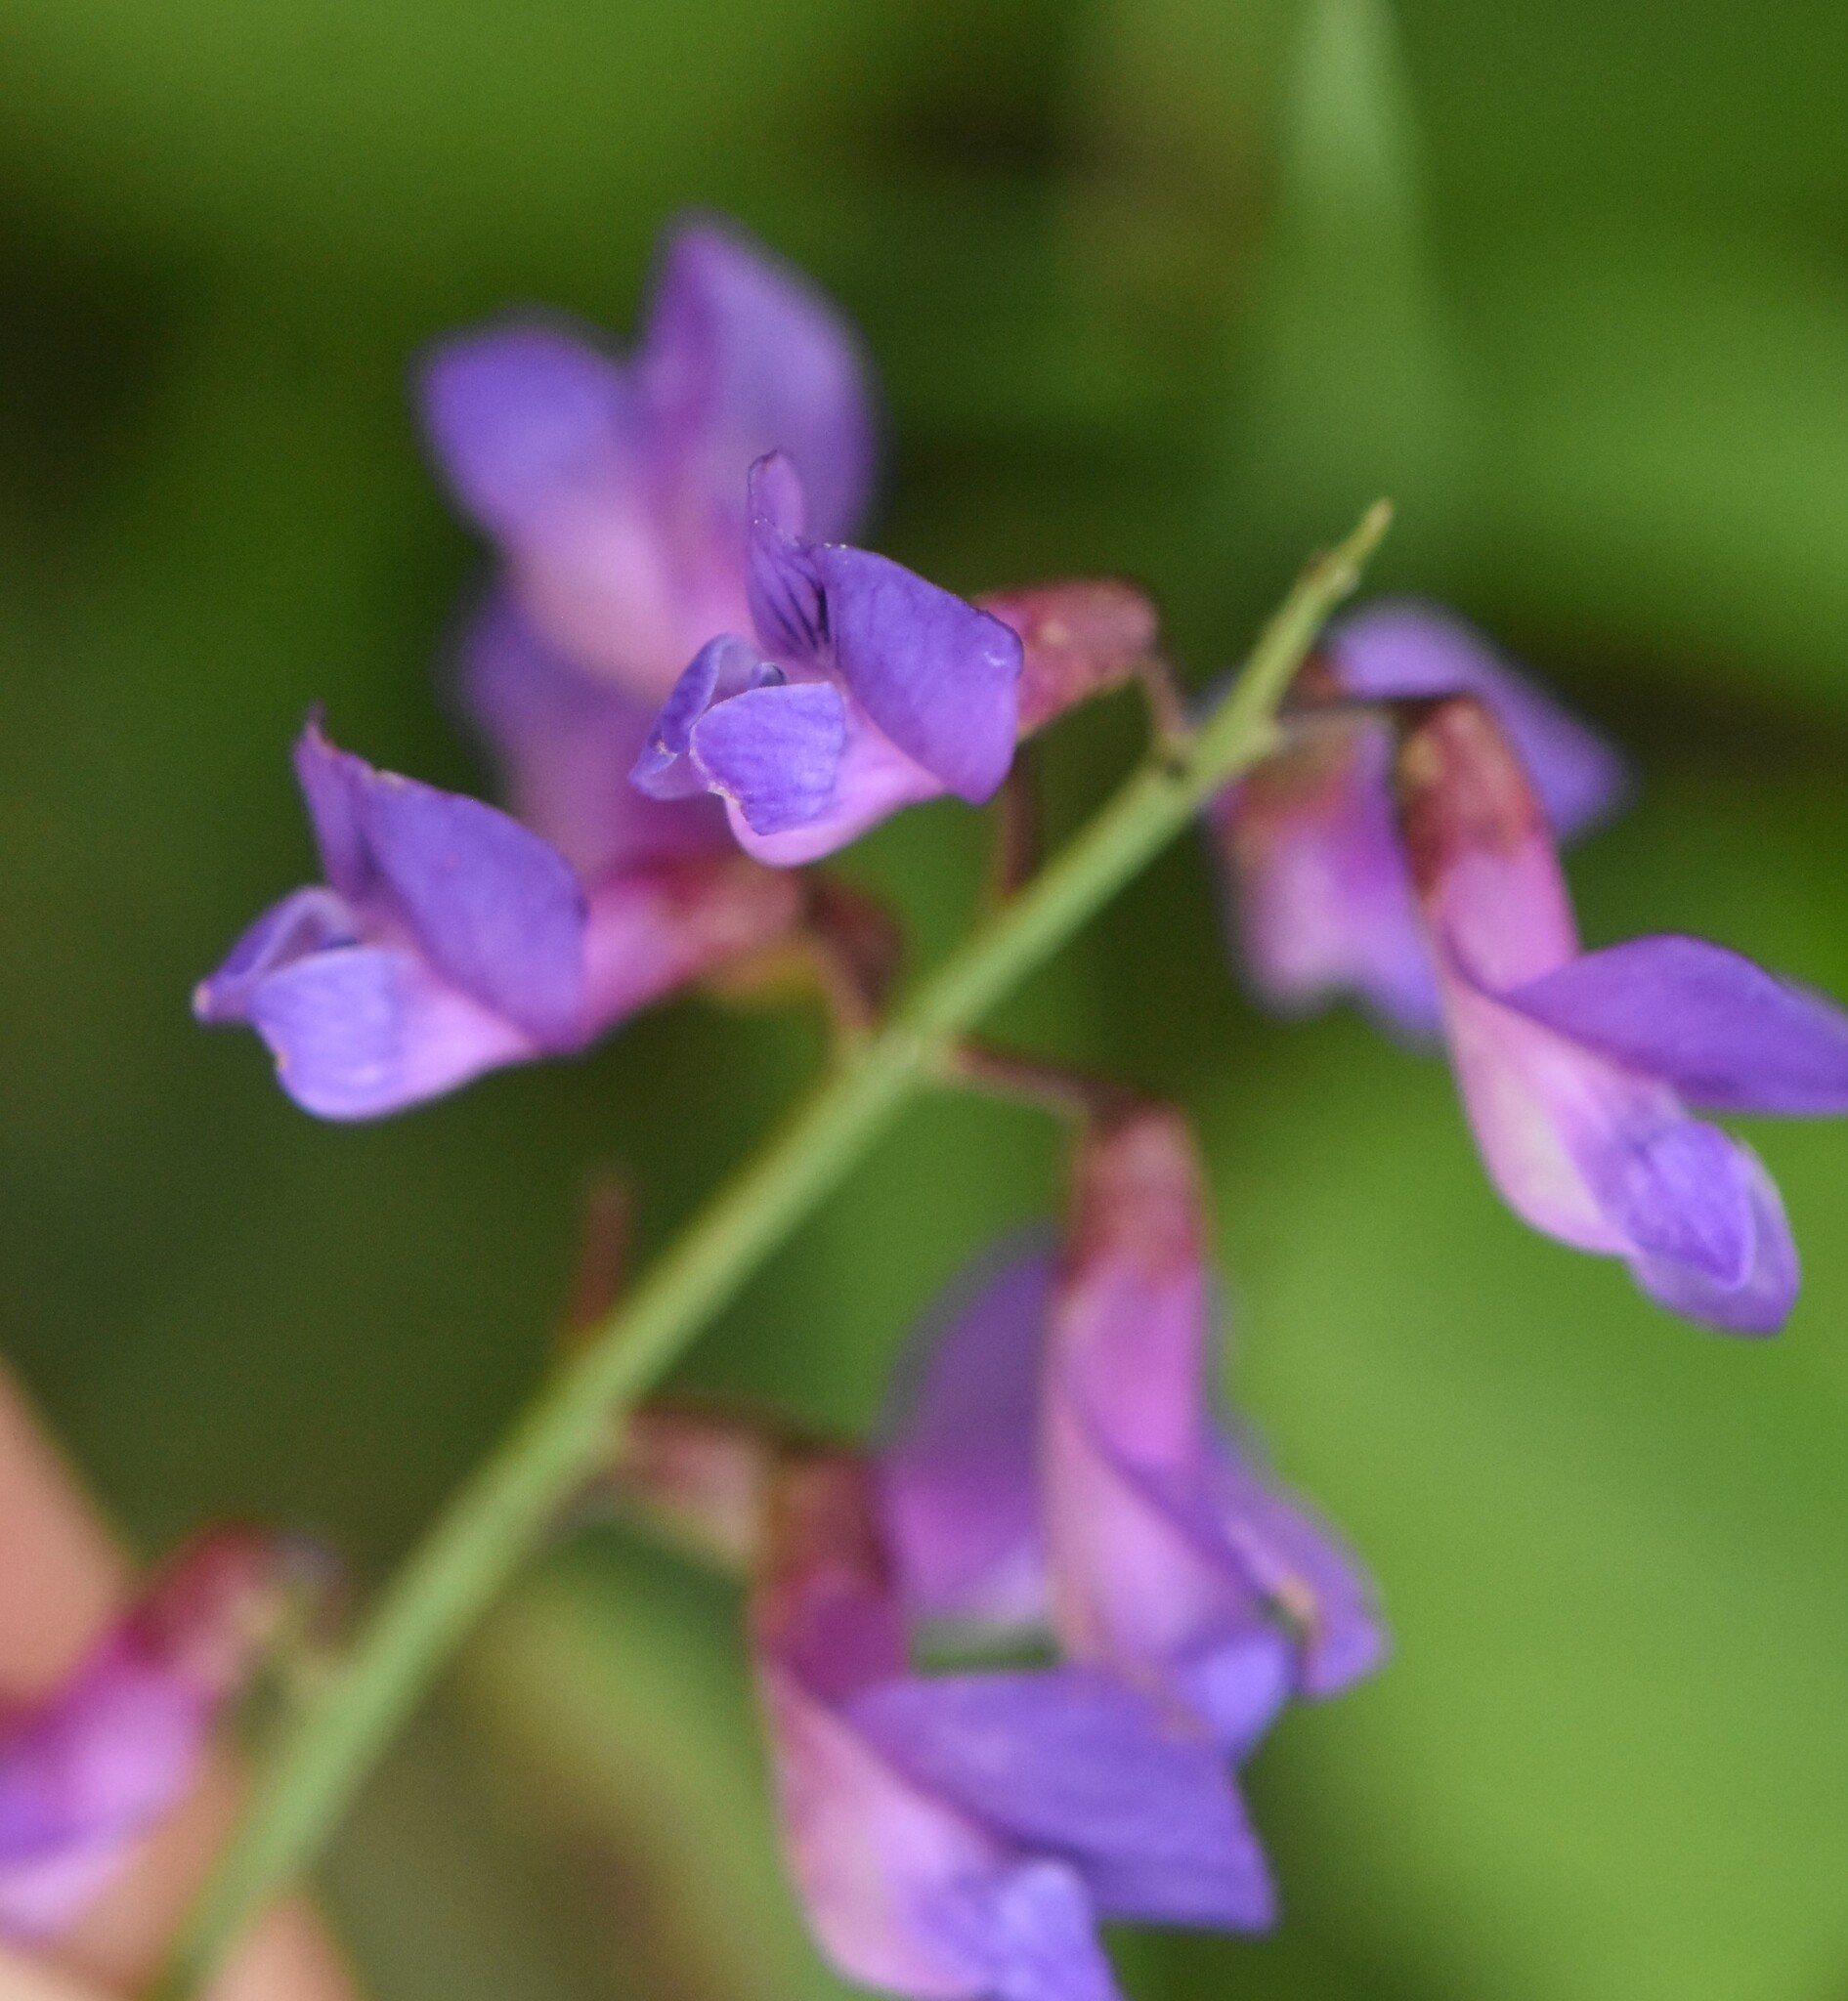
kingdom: Plantae
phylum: Tracheophyta
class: Magnoliopsida
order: Fabales
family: Fabaceae
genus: Vicia
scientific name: Vicia amoena
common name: Cheder ebs
